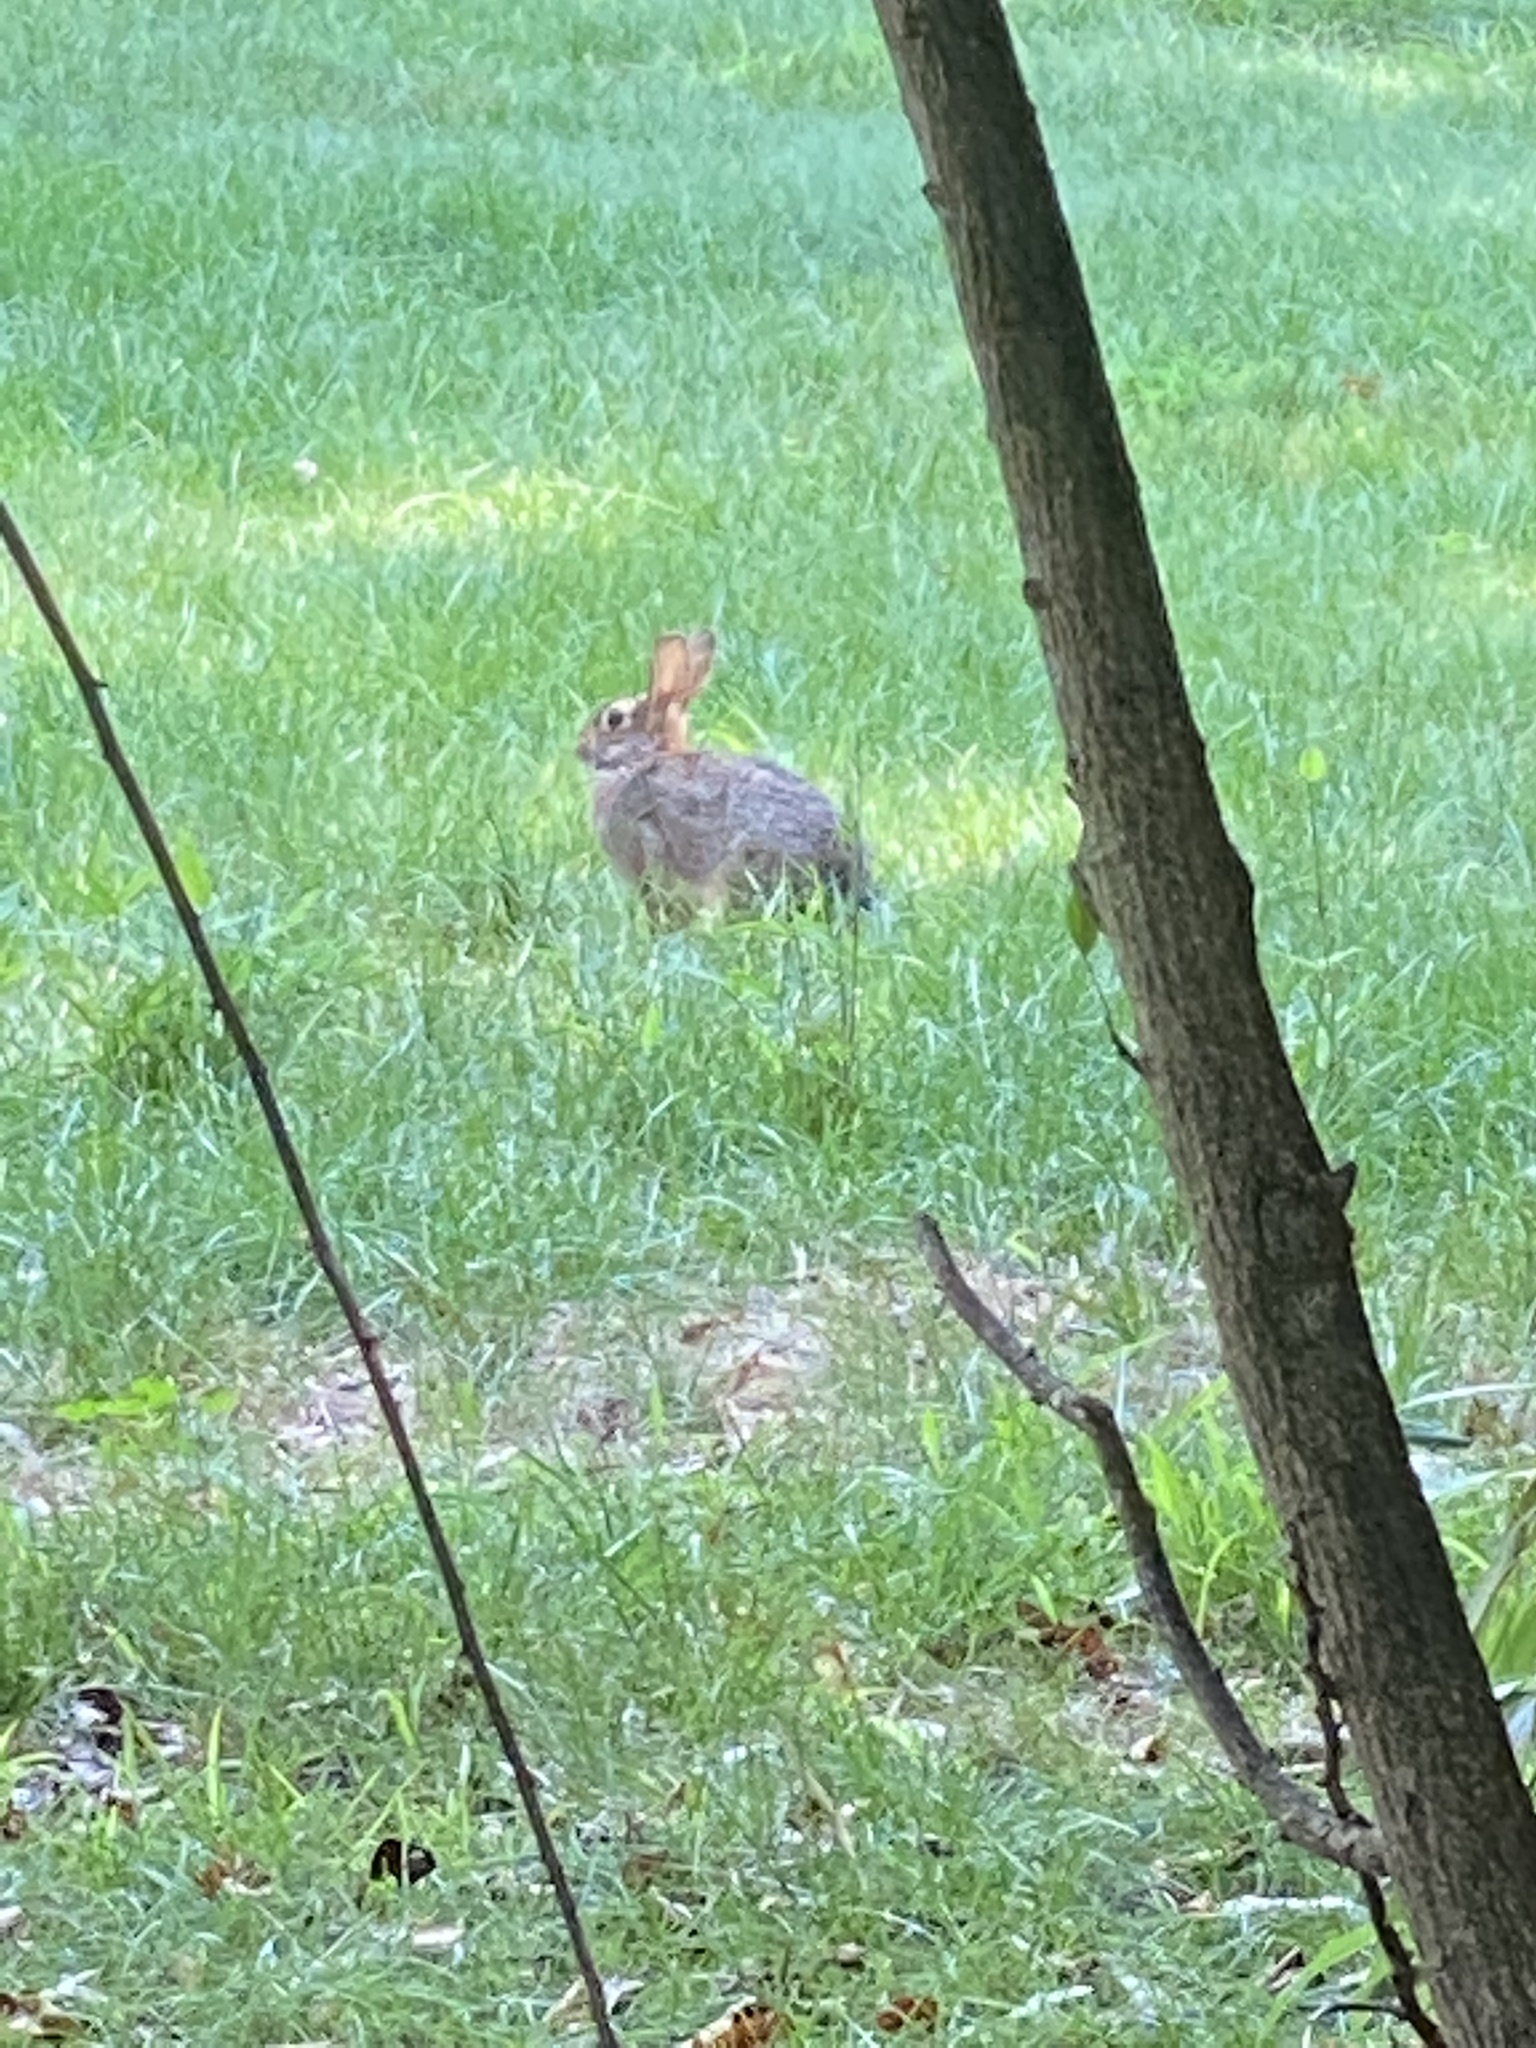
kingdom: Animalia
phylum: Chordata
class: Mammalia
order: Lagomorpha
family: Leporidae
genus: Sylvilagus
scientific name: Sylvilagus floridanus
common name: Eastern cottontail
